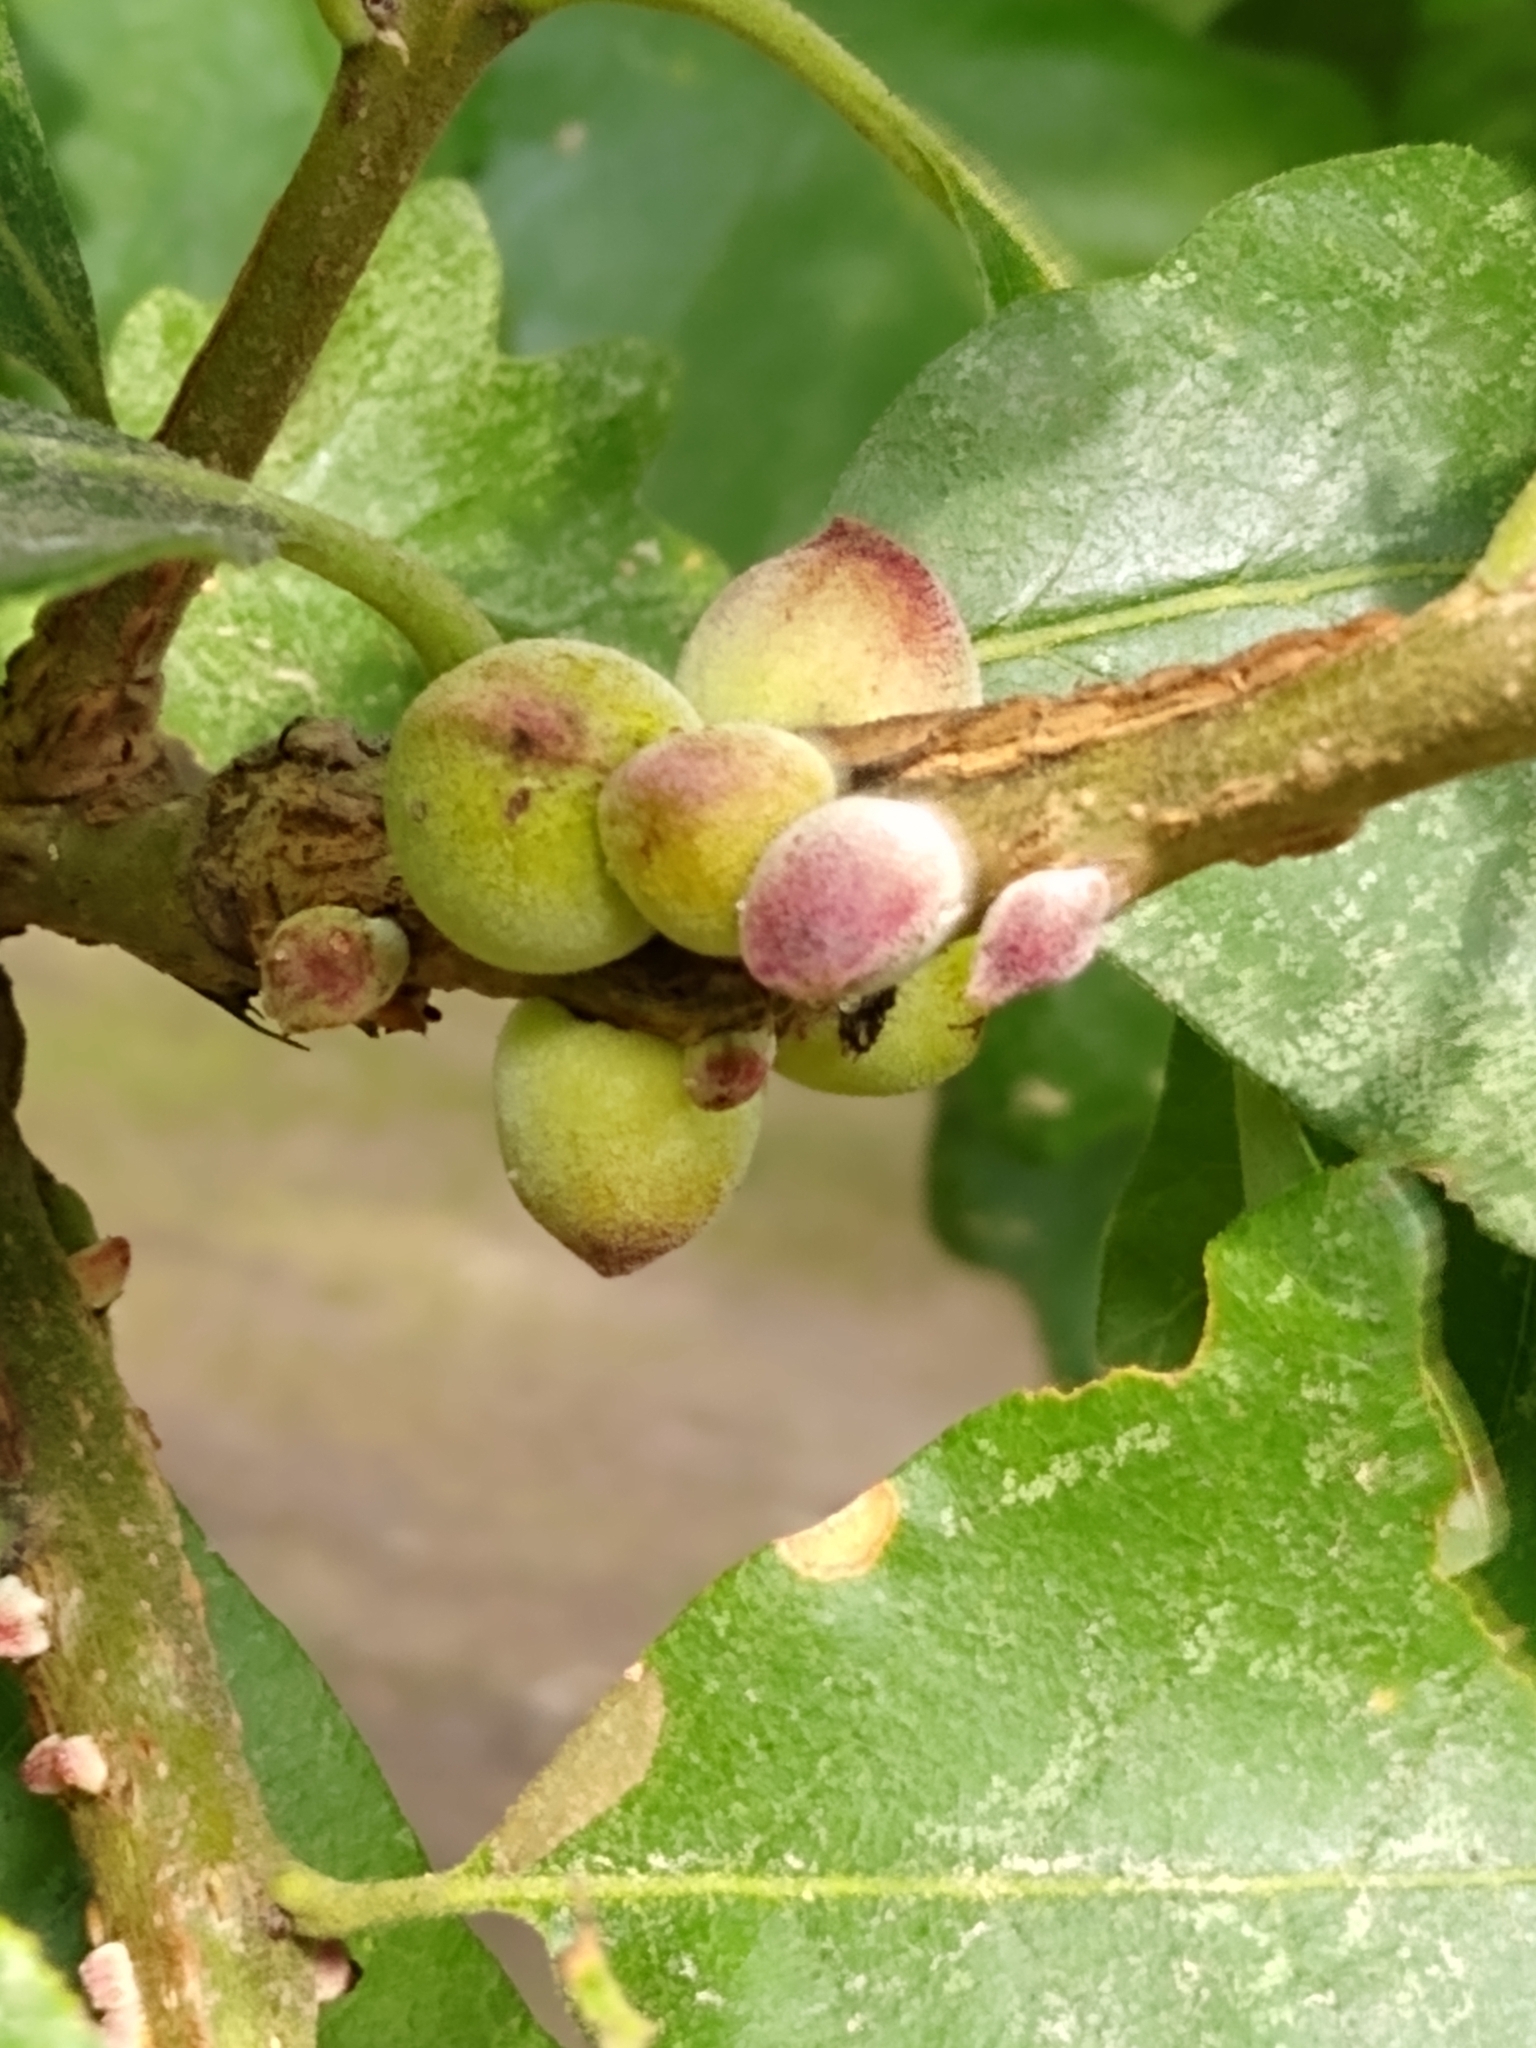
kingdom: Plantae
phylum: Tracheophyta
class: Magnoliopsida
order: Fagales
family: Fagaceae
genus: Quercus
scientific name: Quercus macrocarpa
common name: Bur oak
